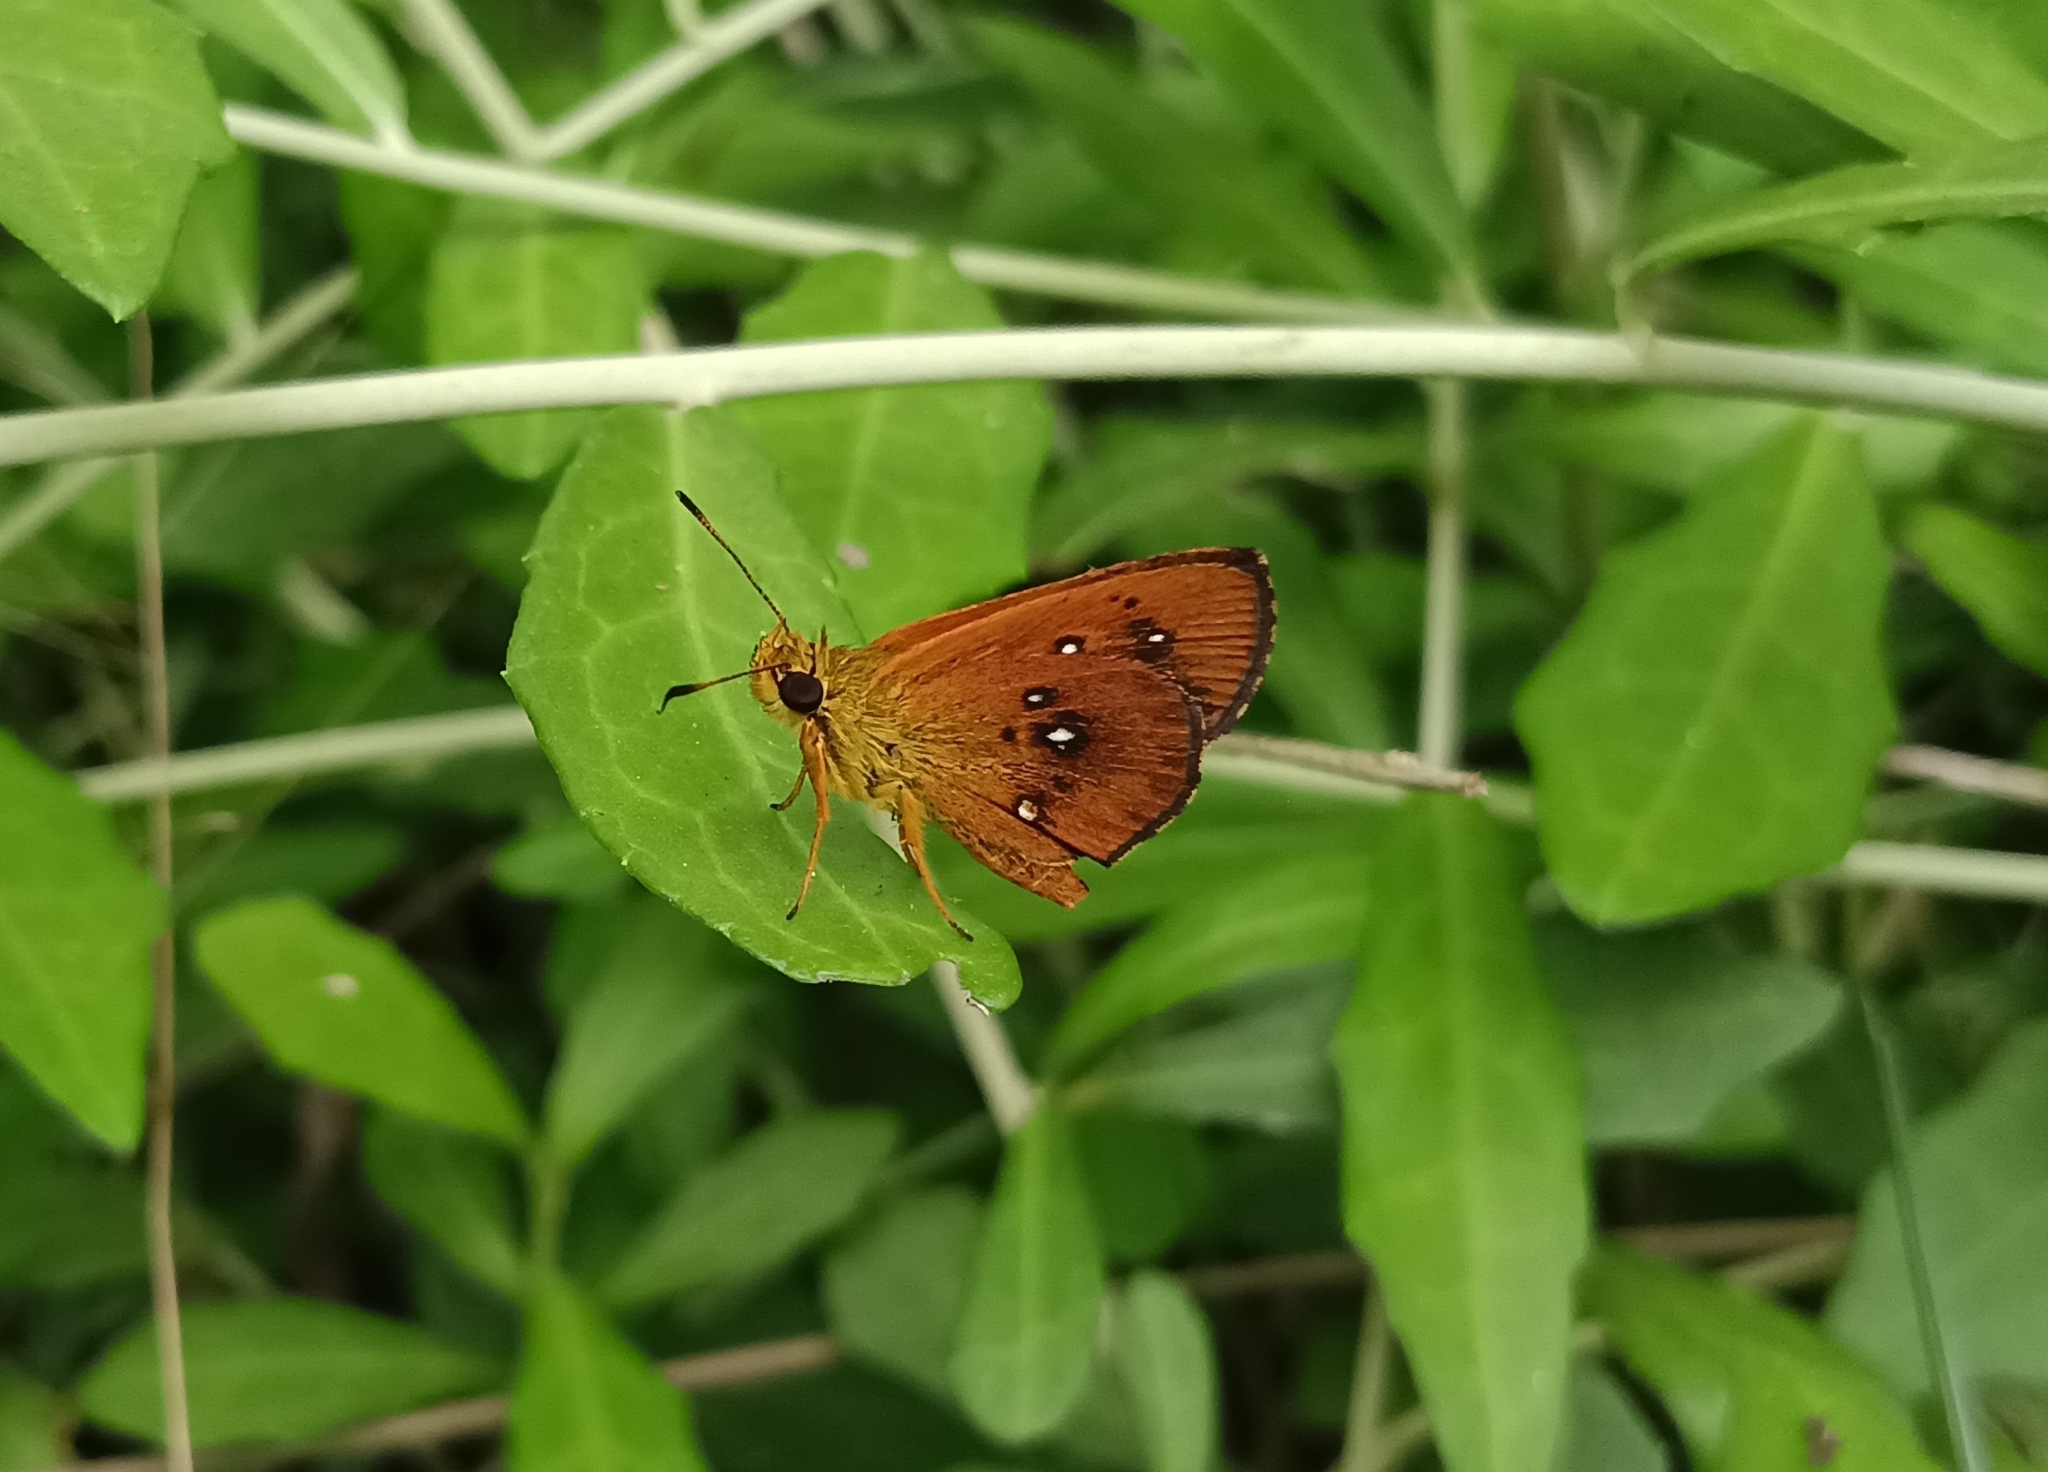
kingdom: Animalia
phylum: Arthropoda
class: Insecta
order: Lepidoptera
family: Hesperiidae
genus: Iambrix
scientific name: Iambrix salsala
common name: Chestnut bob
